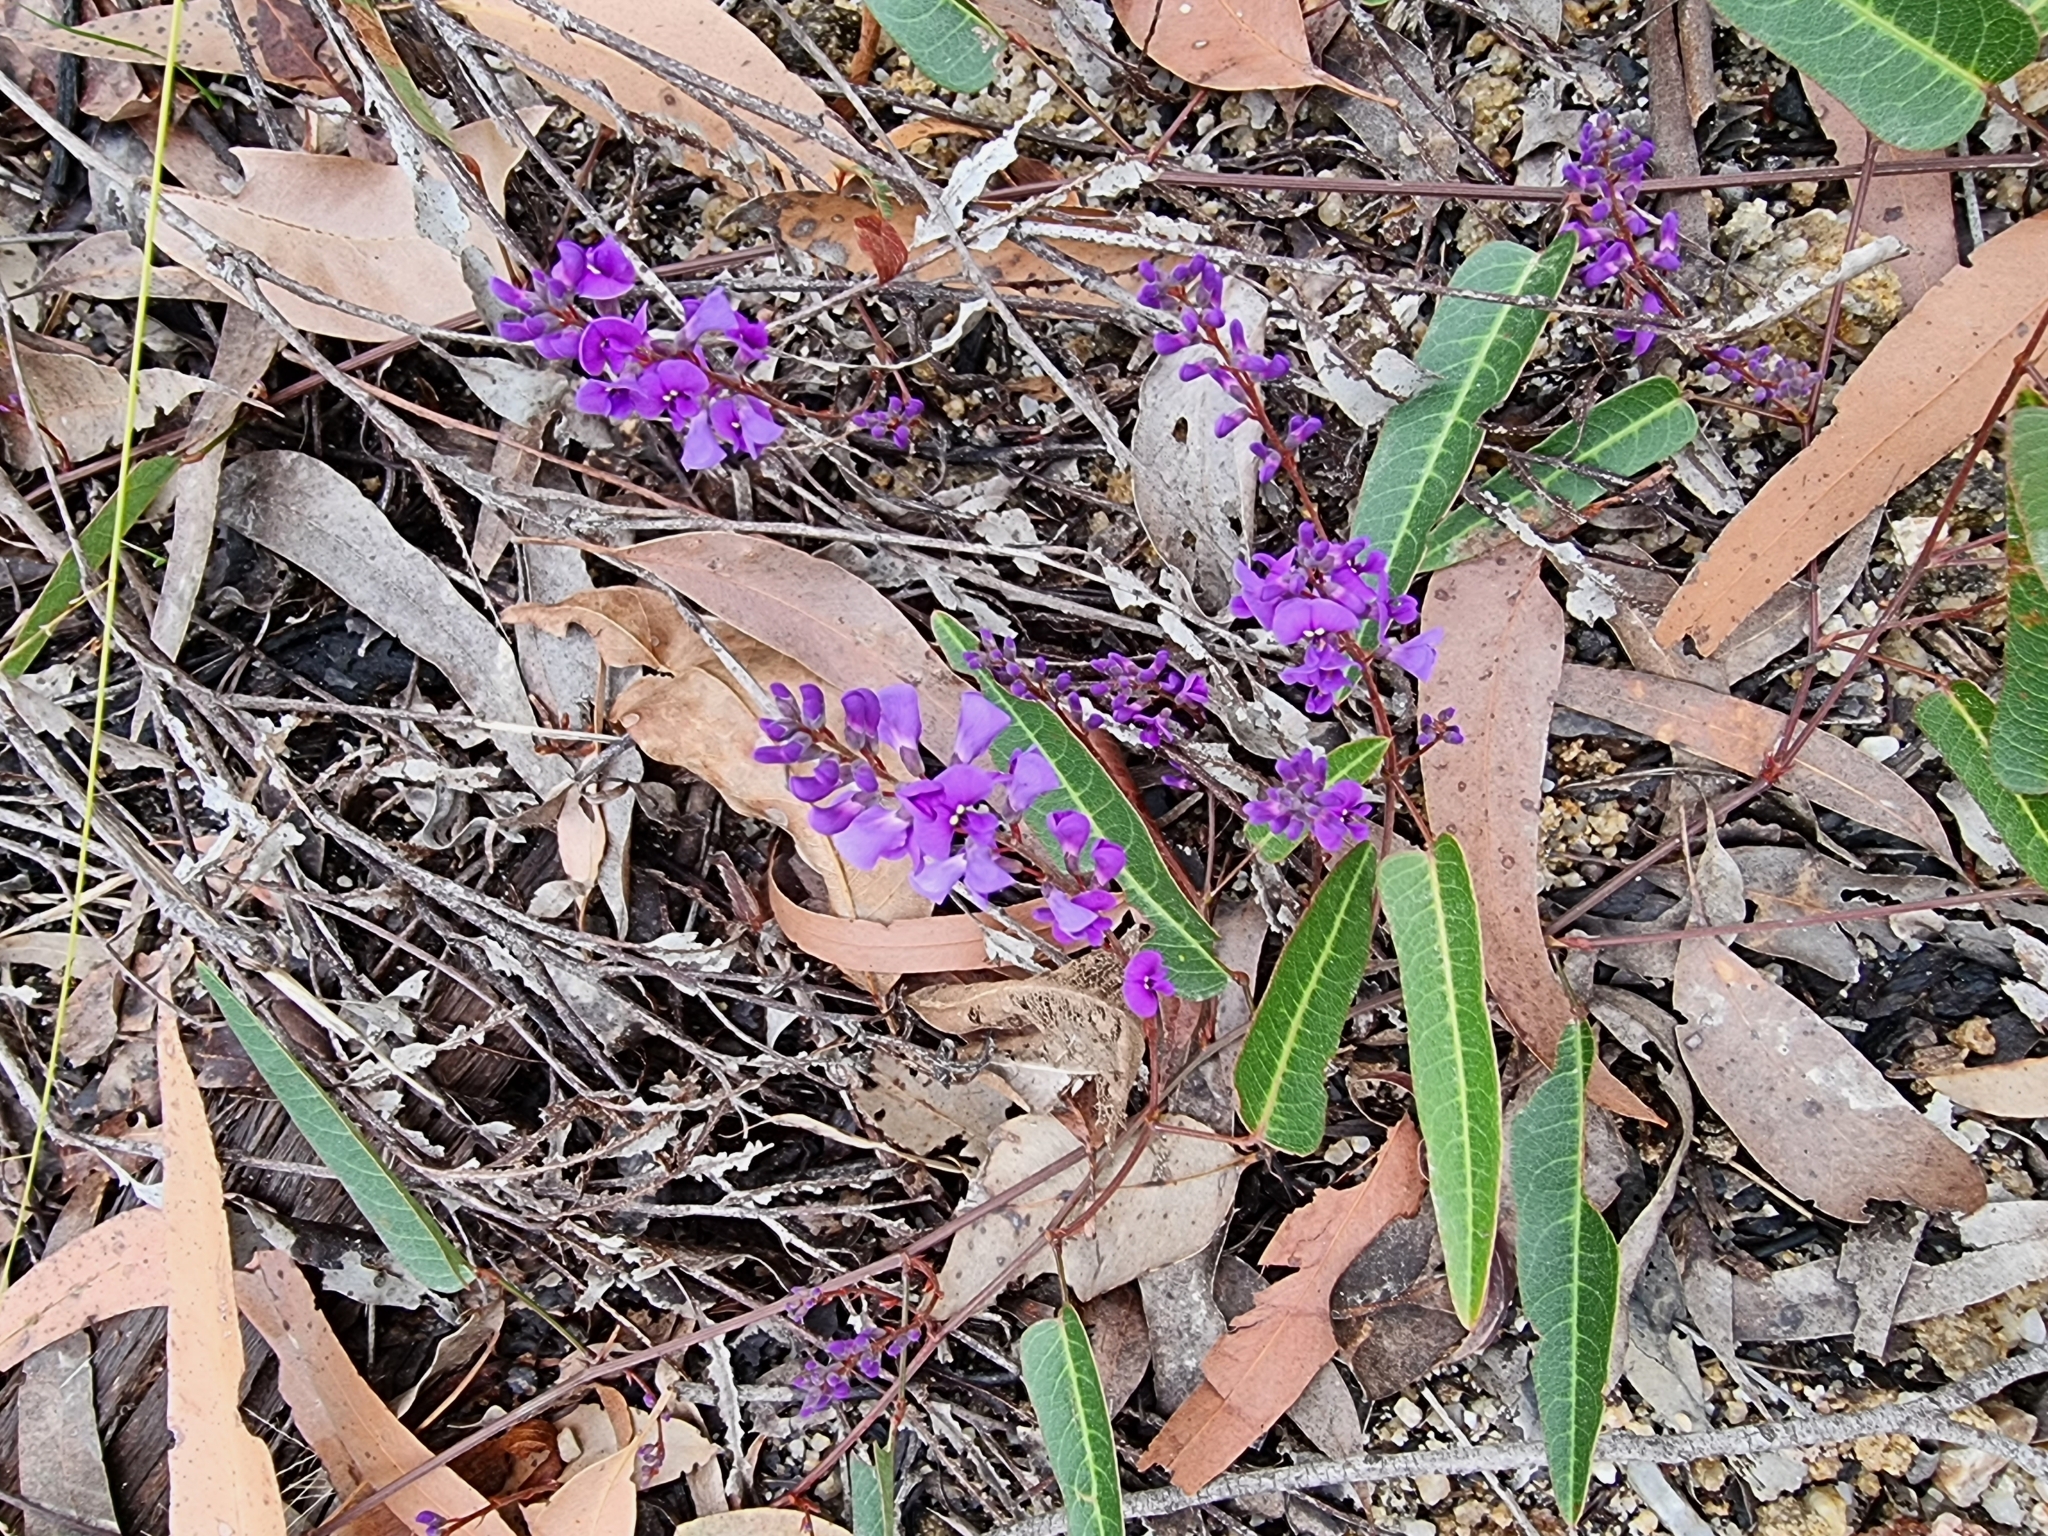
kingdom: Plantae
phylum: Tracheophyta
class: Magnoliopsida
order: Fabales
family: Fabaceae
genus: Hardenbergia
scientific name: Hardenbergia violacea
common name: Coral-pea
